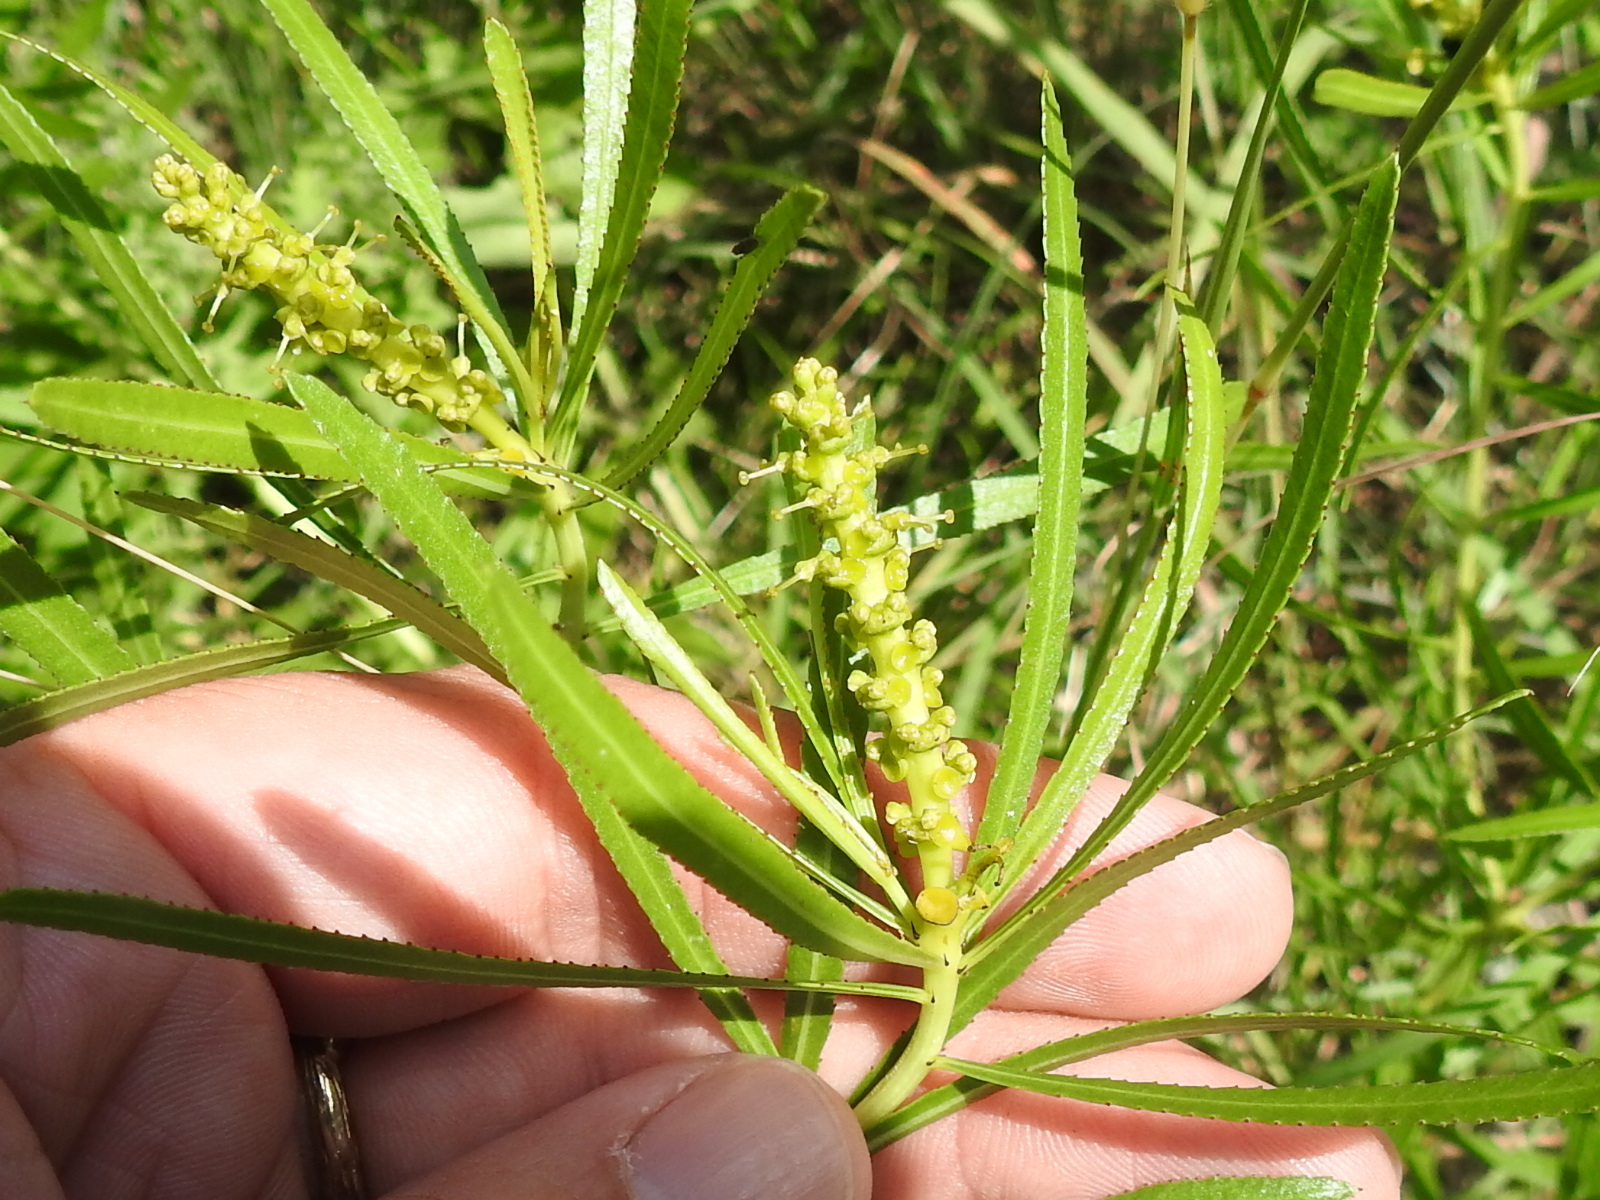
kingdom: Plantae
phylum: Tracheophyta
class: Magnoliopsida
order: Malpighiales
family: Euphorbiaceae
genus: Stillingia
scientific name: Stillingia texana
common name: Texas stillingia
